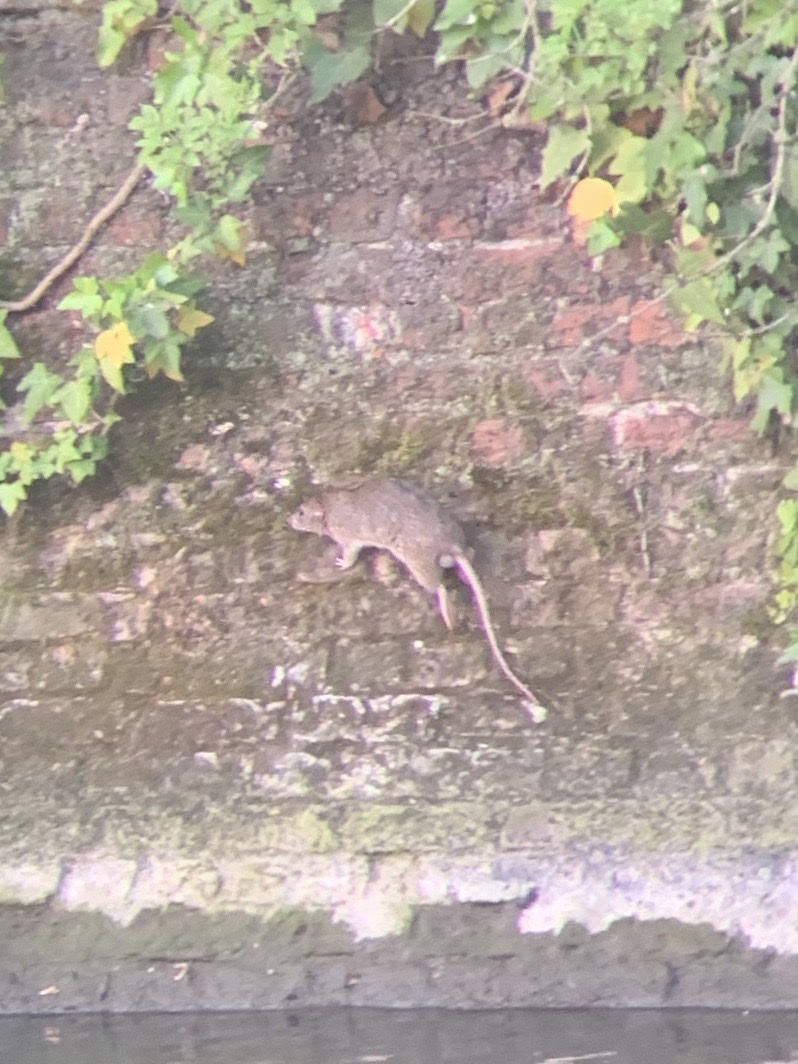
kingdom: Animalia
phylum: Chordata
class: Mammalia
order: Rodentia
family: Muridae
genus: Rattus
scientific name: Rattus norvegicus
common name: Brown rat
